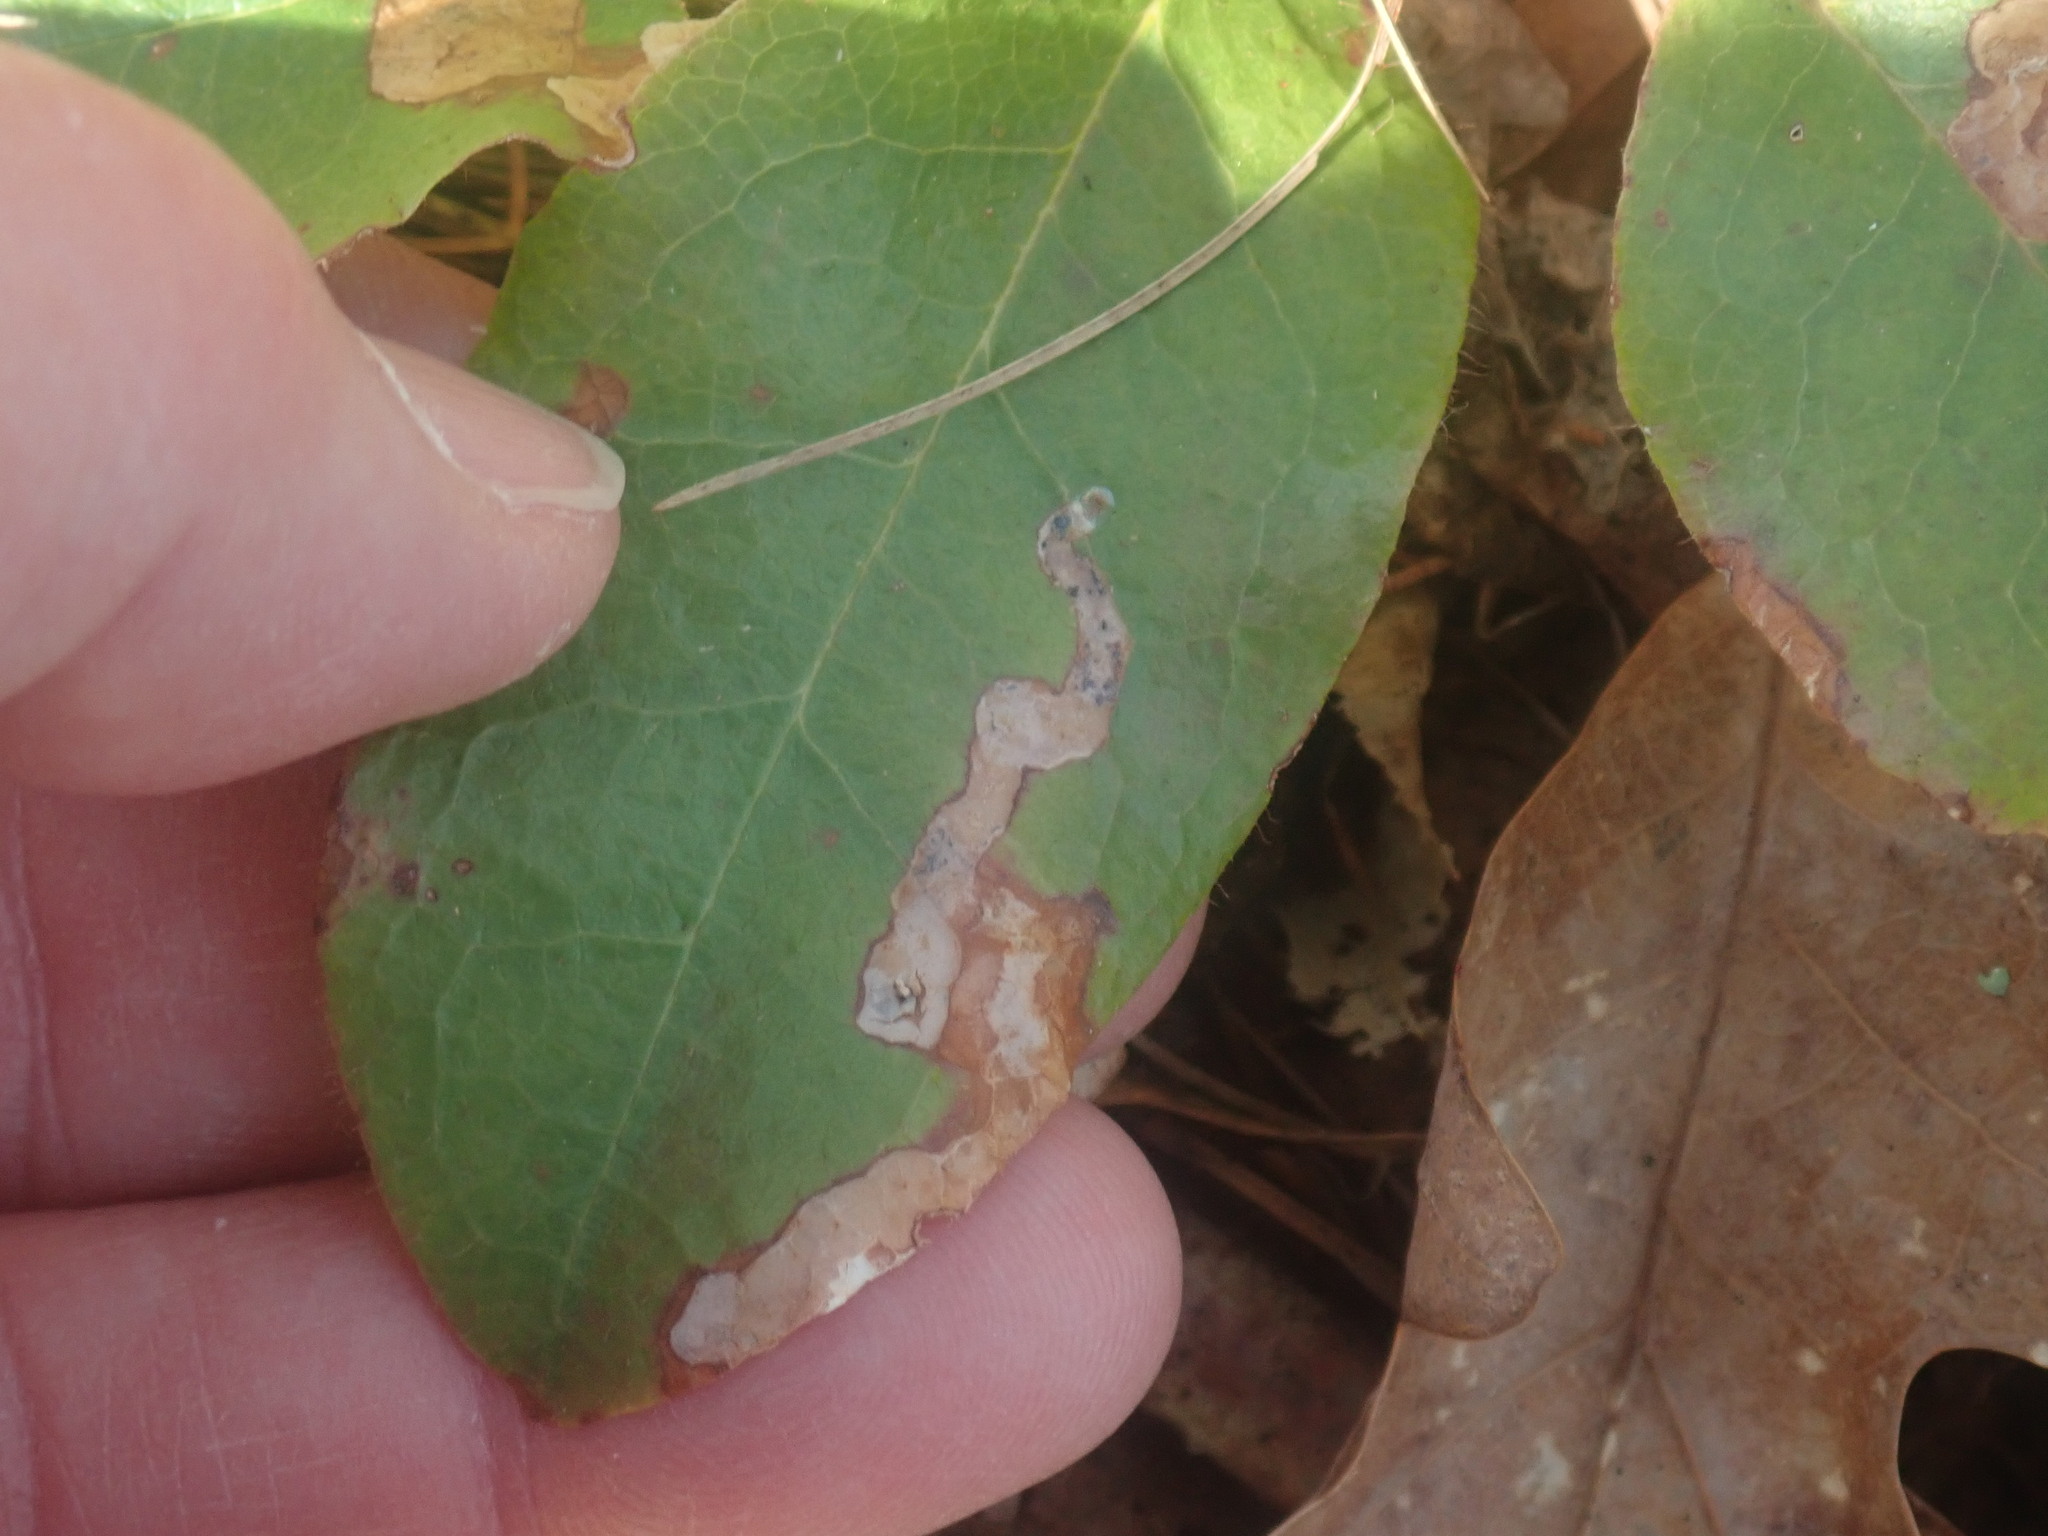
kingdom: Animalia
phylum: Arthropoda
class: Insecta
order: Coleoptera
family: Buprestidae
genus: Brachys
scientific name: Brachys
